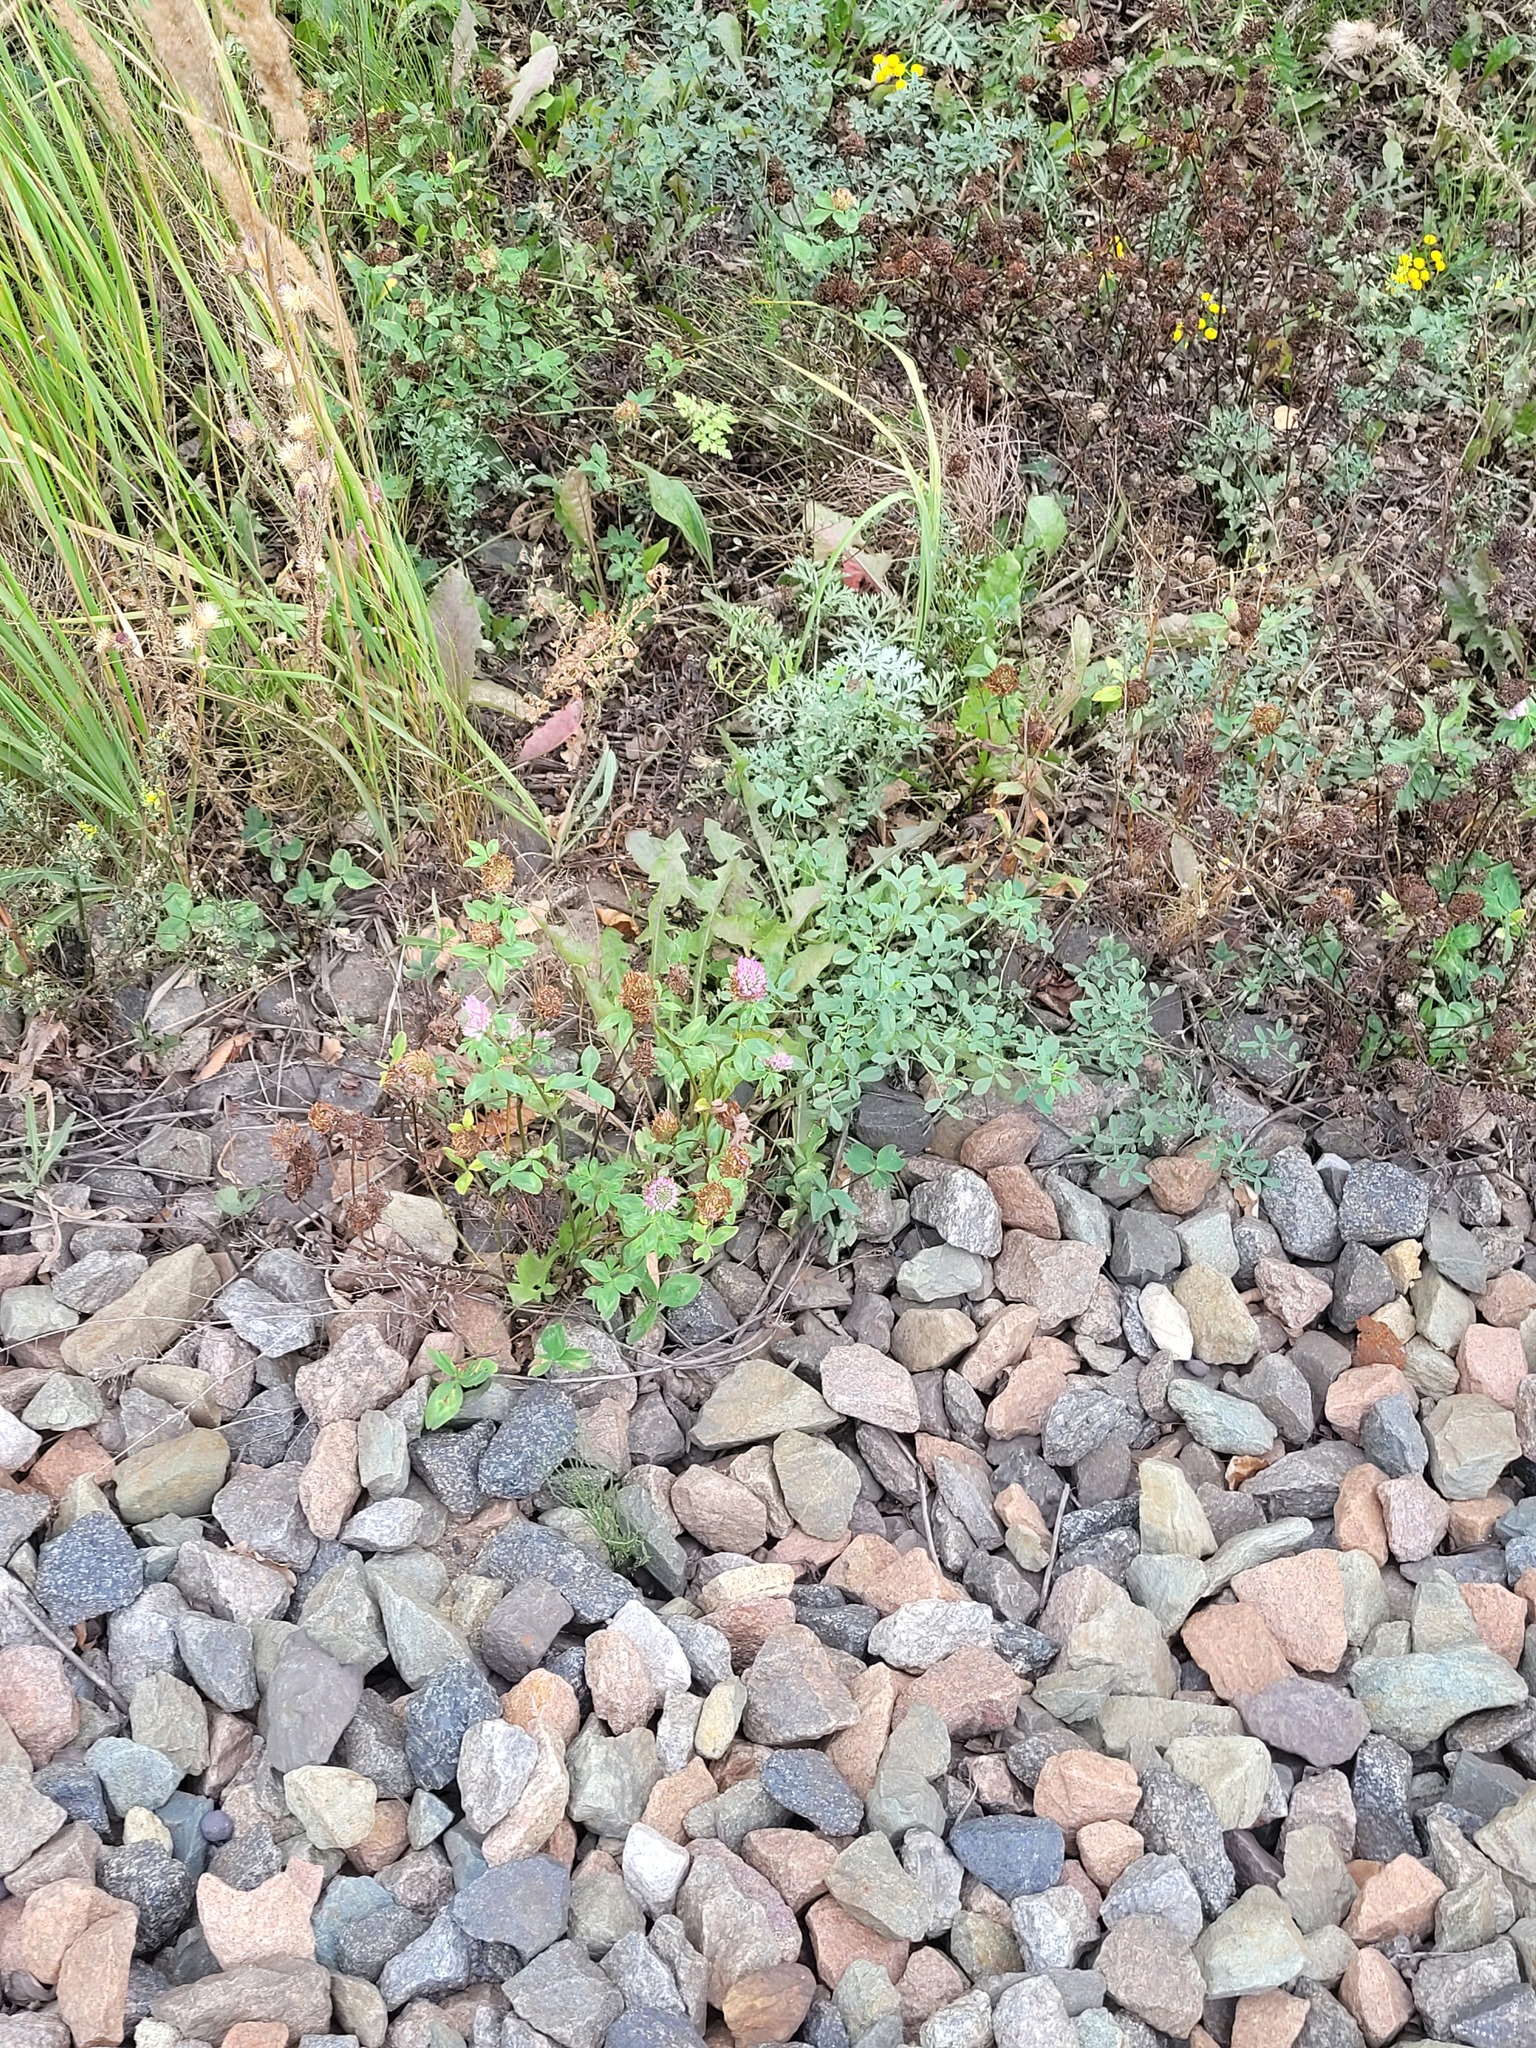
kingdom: Plantae
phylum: Tracheophyta
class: Magnoliopsida
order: Fabales
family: Fabaceae
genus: Trifolium
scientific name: Trifolium pratense
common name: Red clover
